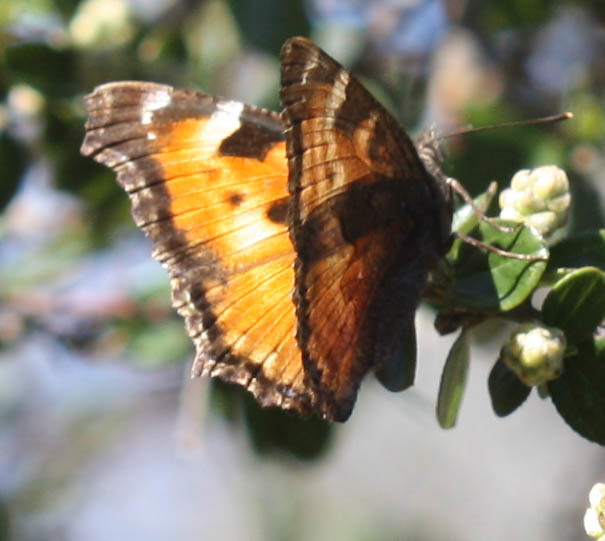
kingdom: Animalia
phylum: Arthropoda
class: Insecta
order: Lepidoptera
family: Nymphalidae
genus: Nymphalis
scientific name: Nymphalis californica
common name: California tortoiseshell
